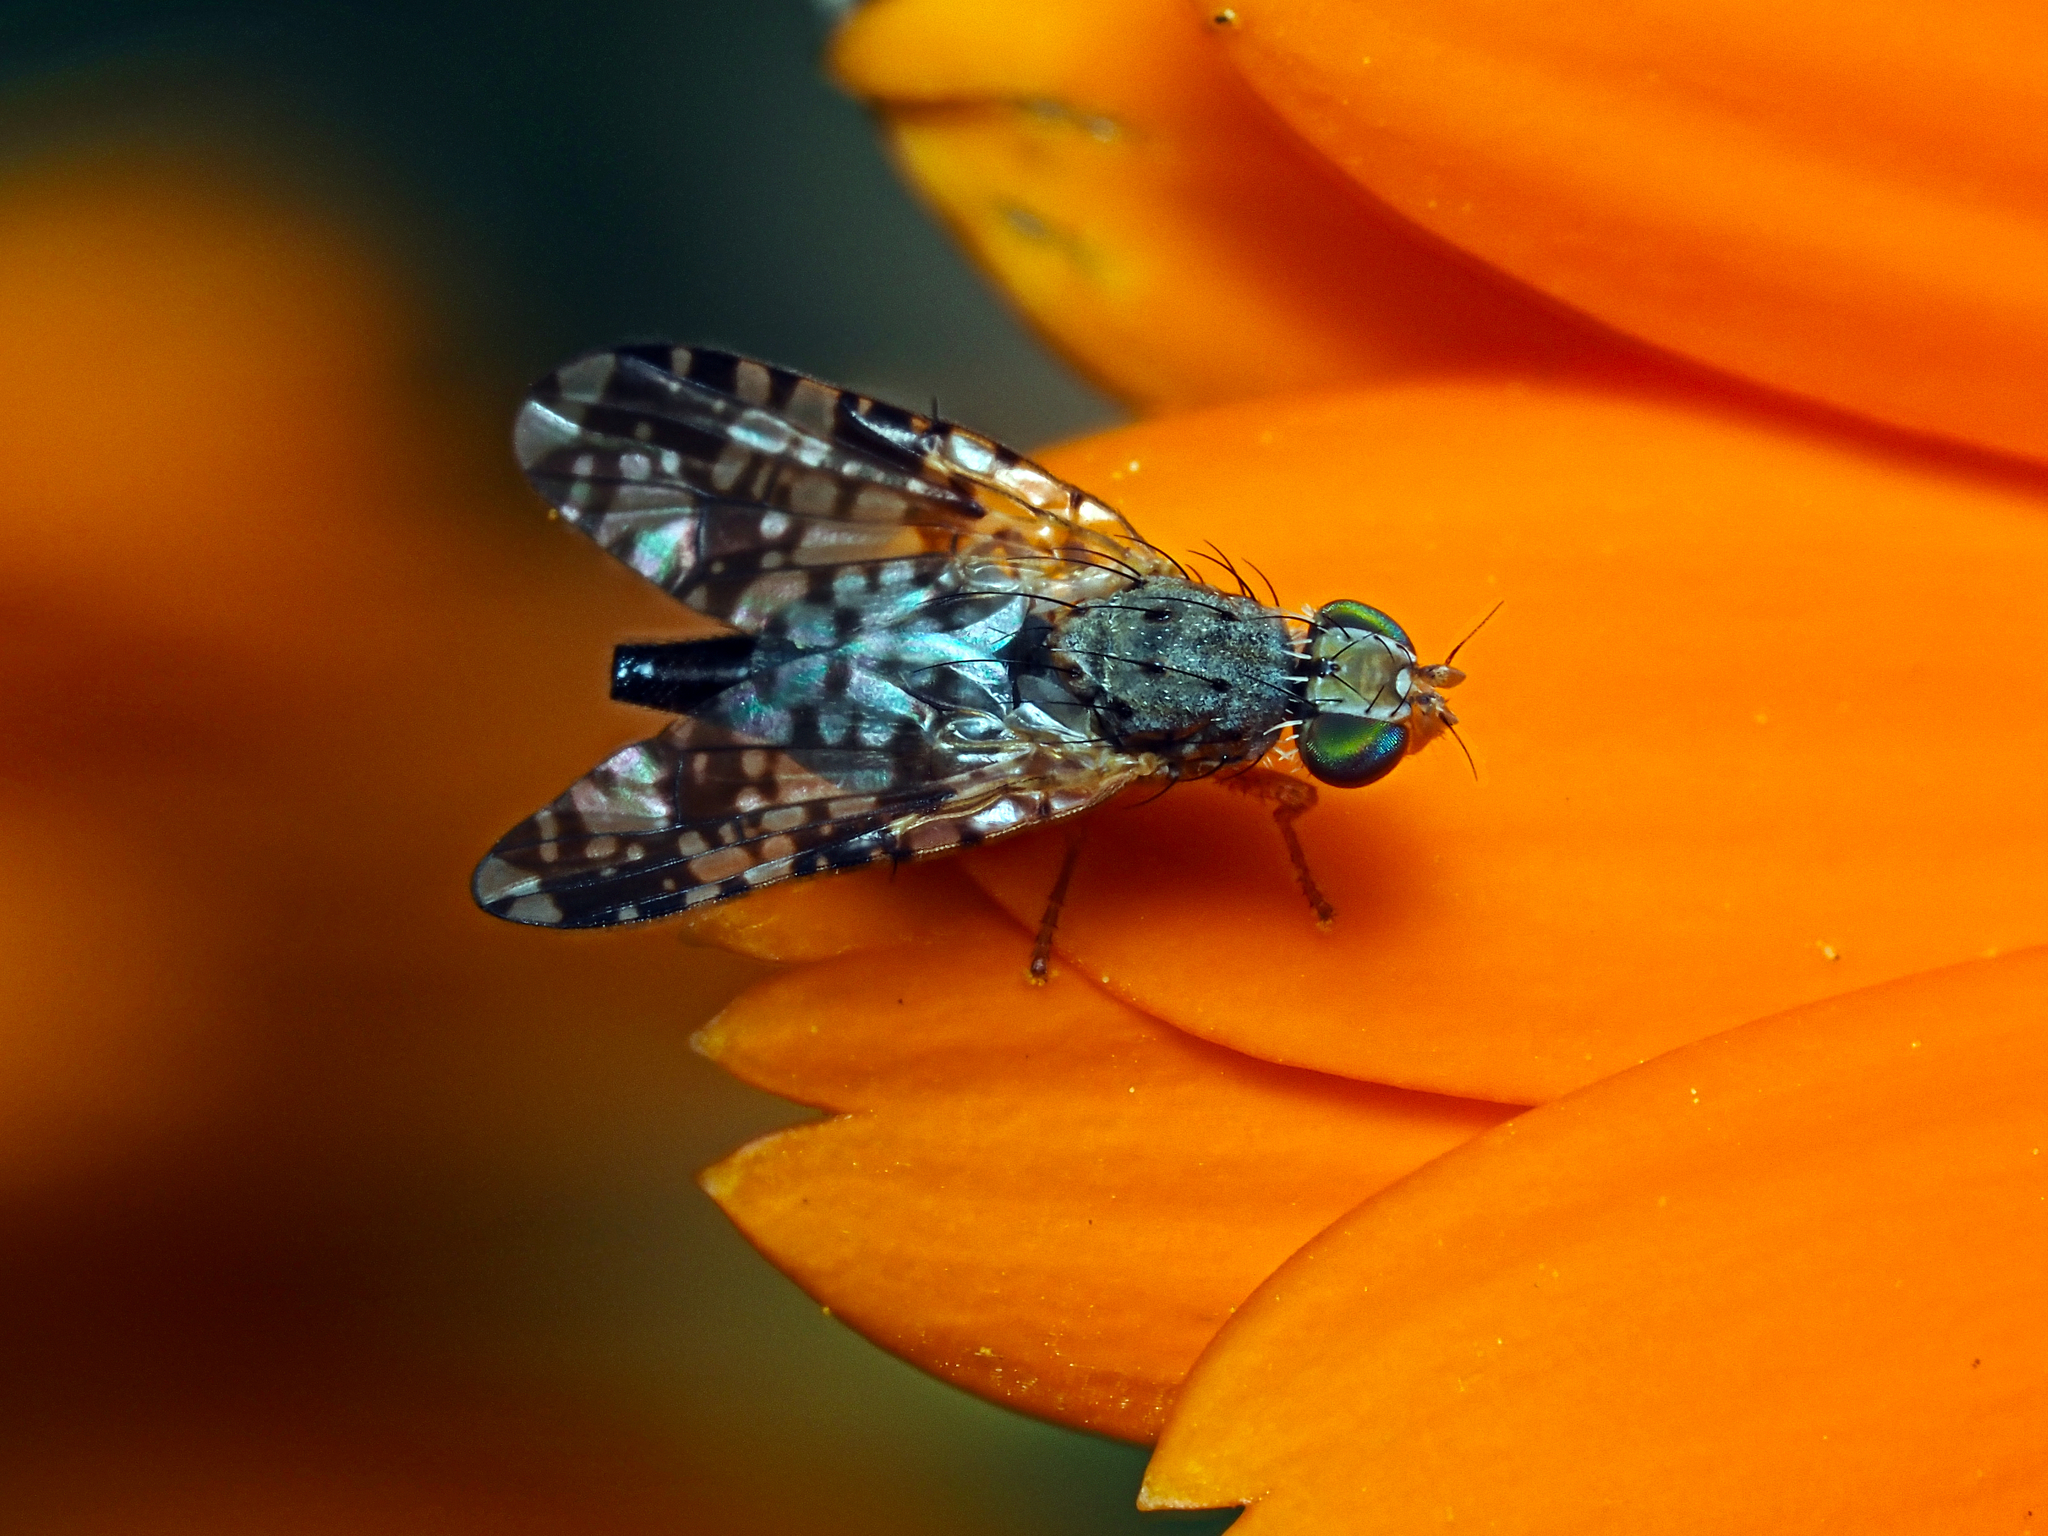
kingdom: Animalia
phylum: Arthropoda
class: Insecta
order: Diptera
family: Tephritidae
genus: Austrotephritis
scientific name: Austrotephritis
